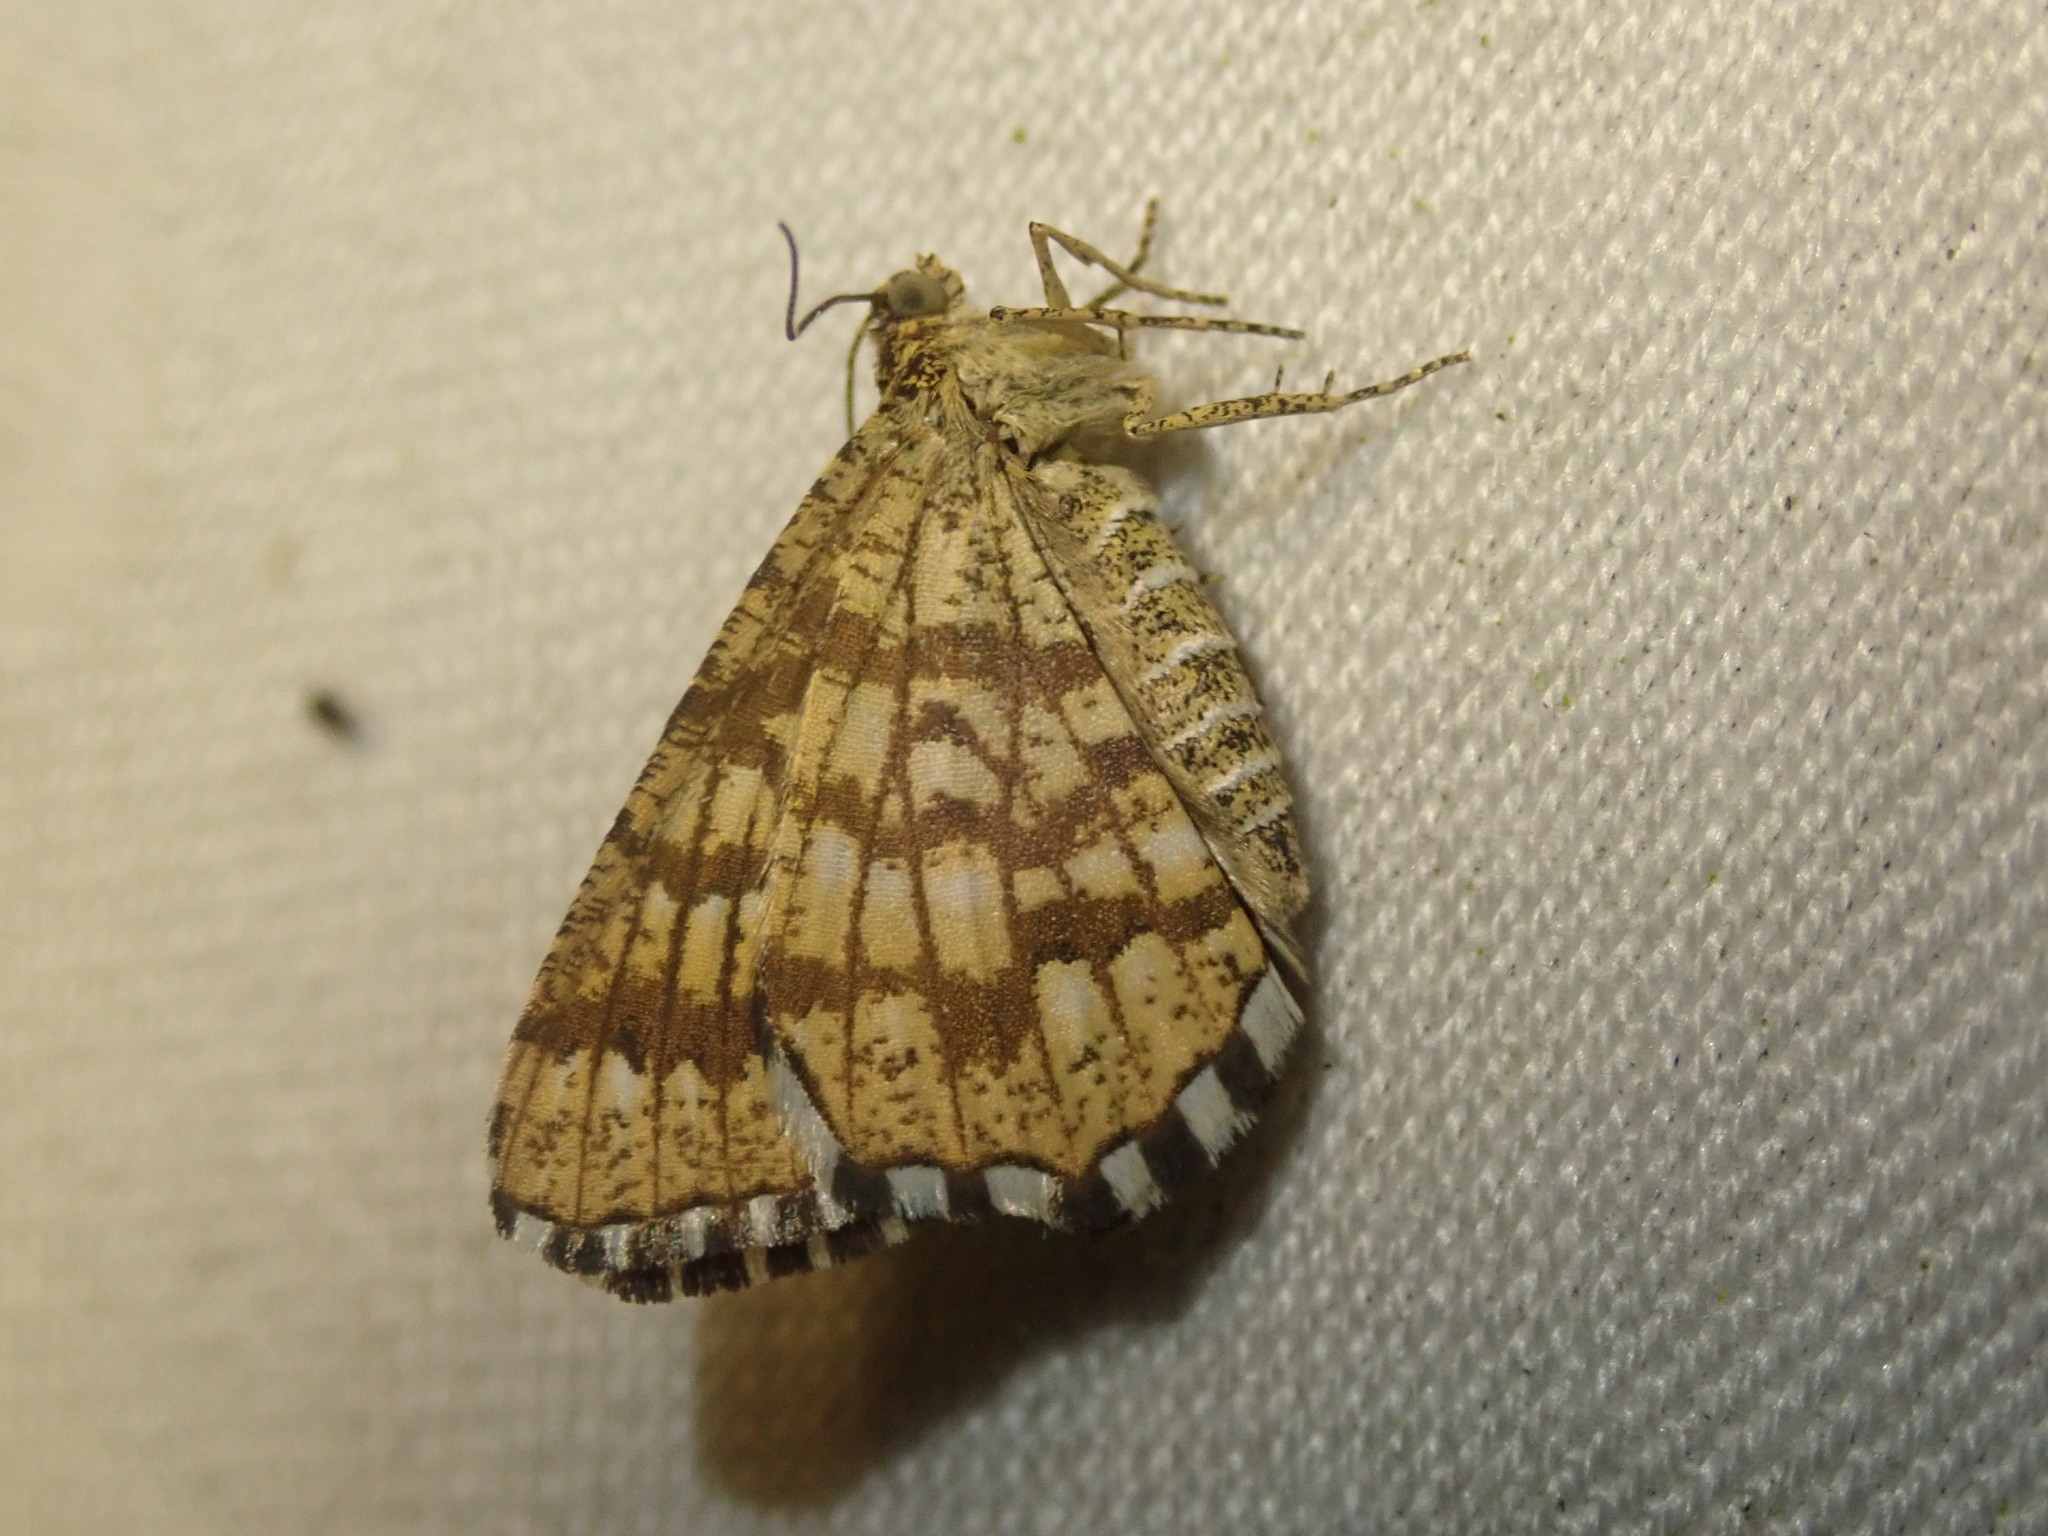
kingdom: Animalia
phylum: Arthropoda
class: Insecta
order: Lepidoptera
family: Geometridae
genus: Chiasmia
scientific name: Chiasmia clathrata
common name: Latticed heath
